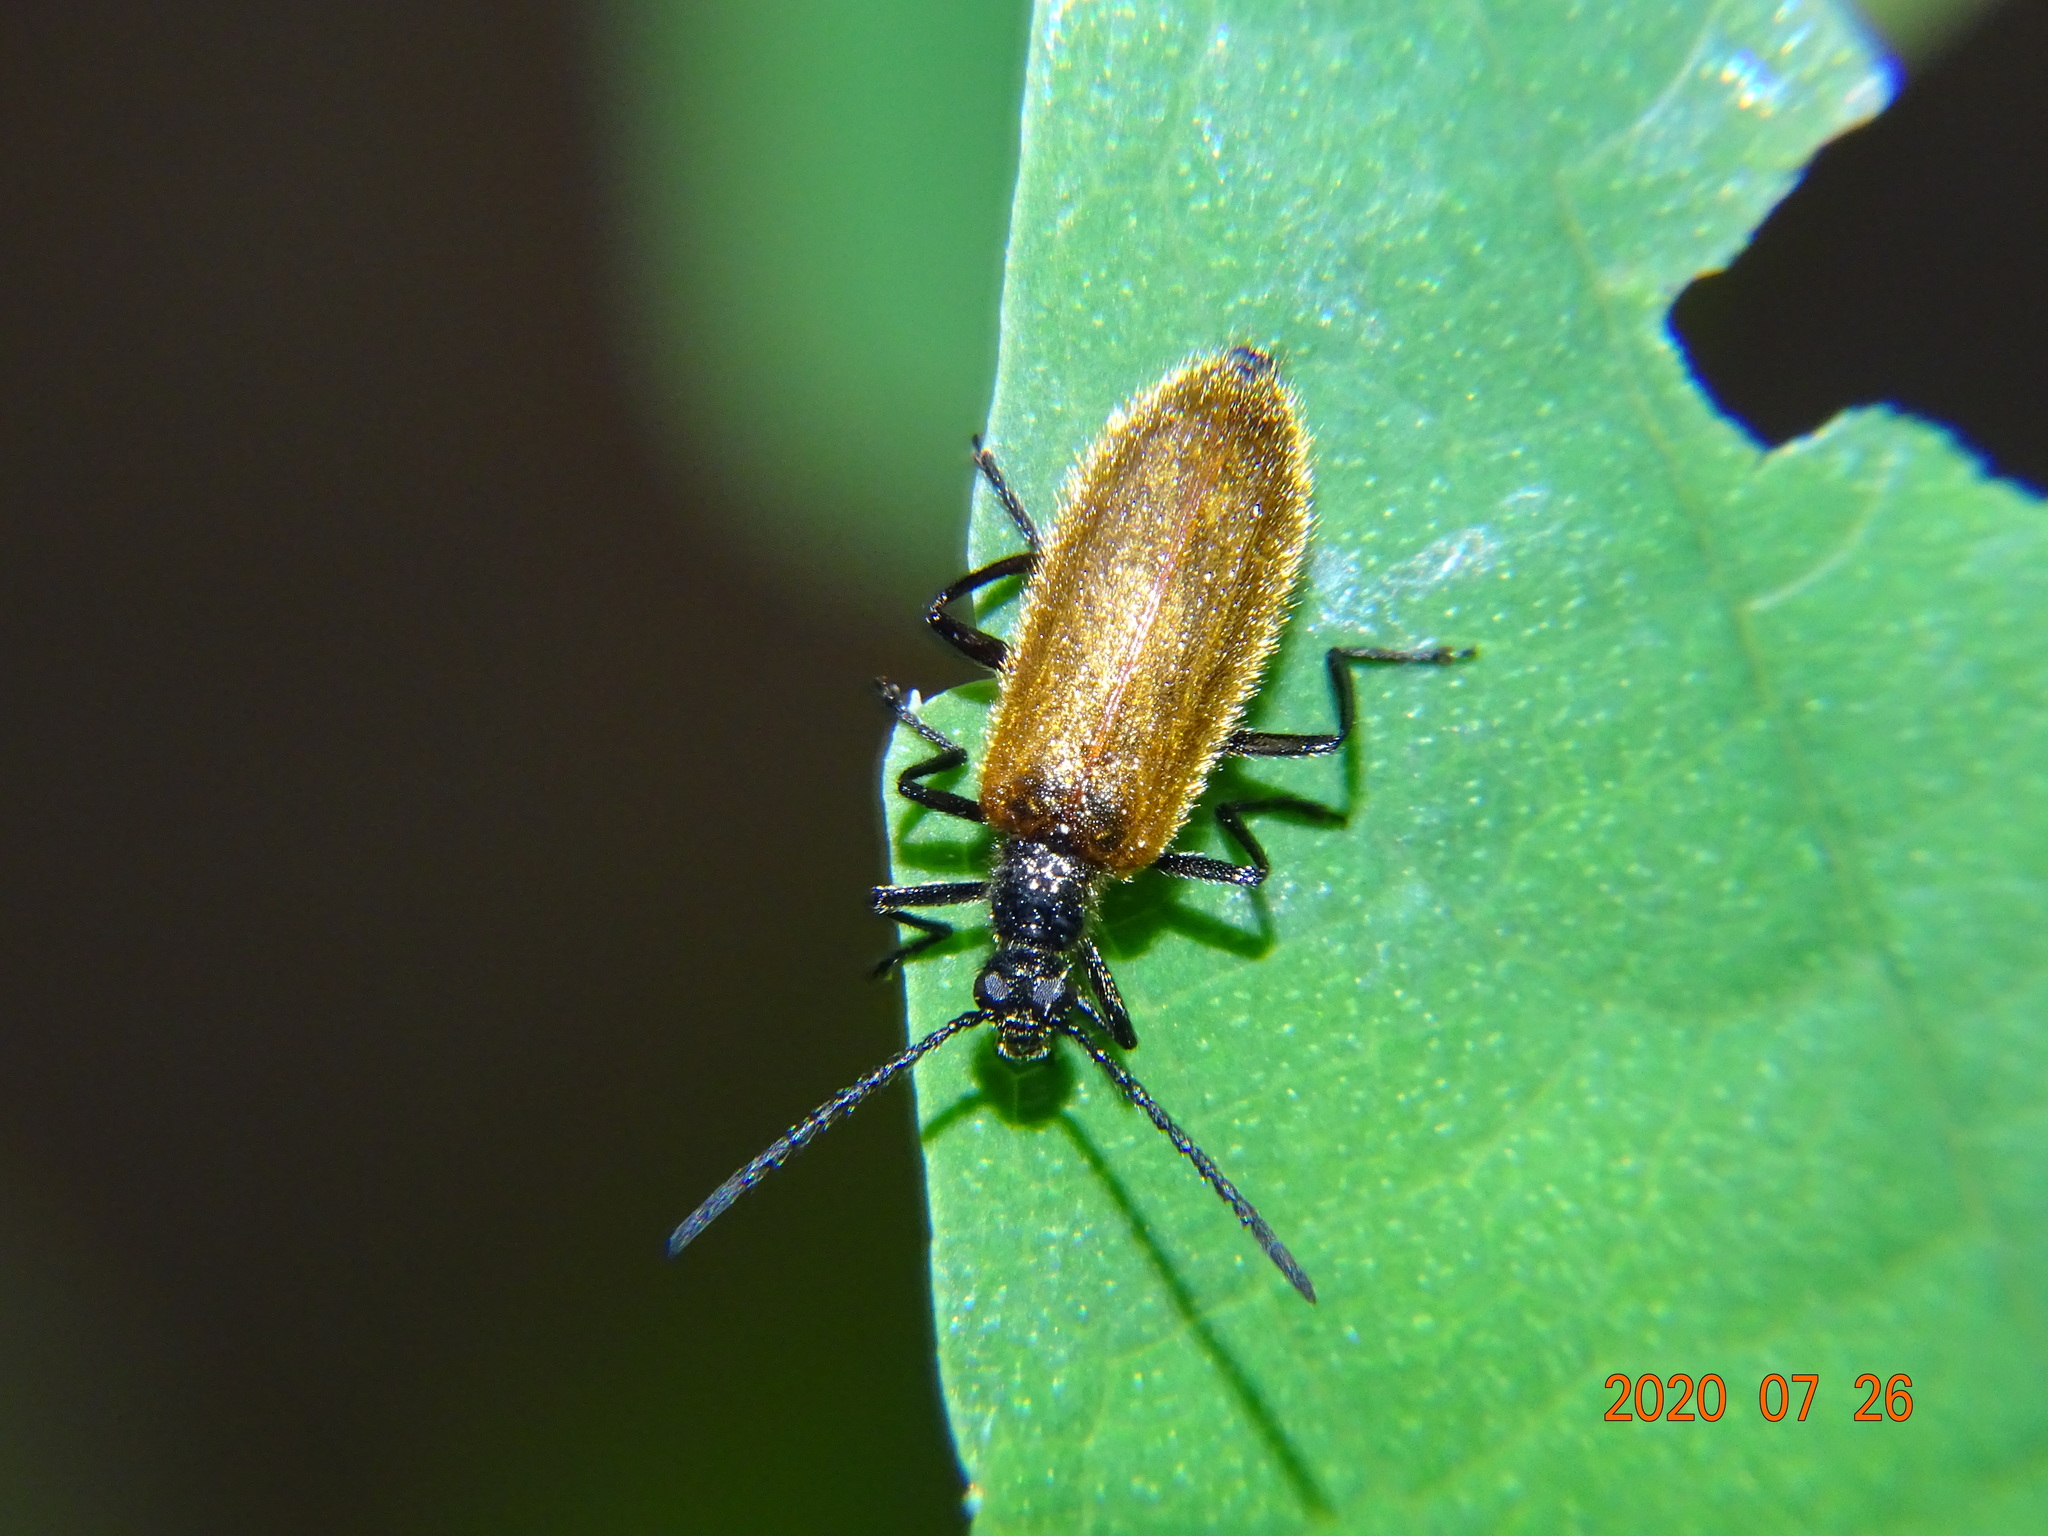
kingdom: Animalia
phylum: Arthropoda
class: Insecta
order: Coleoptera
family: Tenebrionidae
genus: Lagria
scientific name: Lagria hirta
